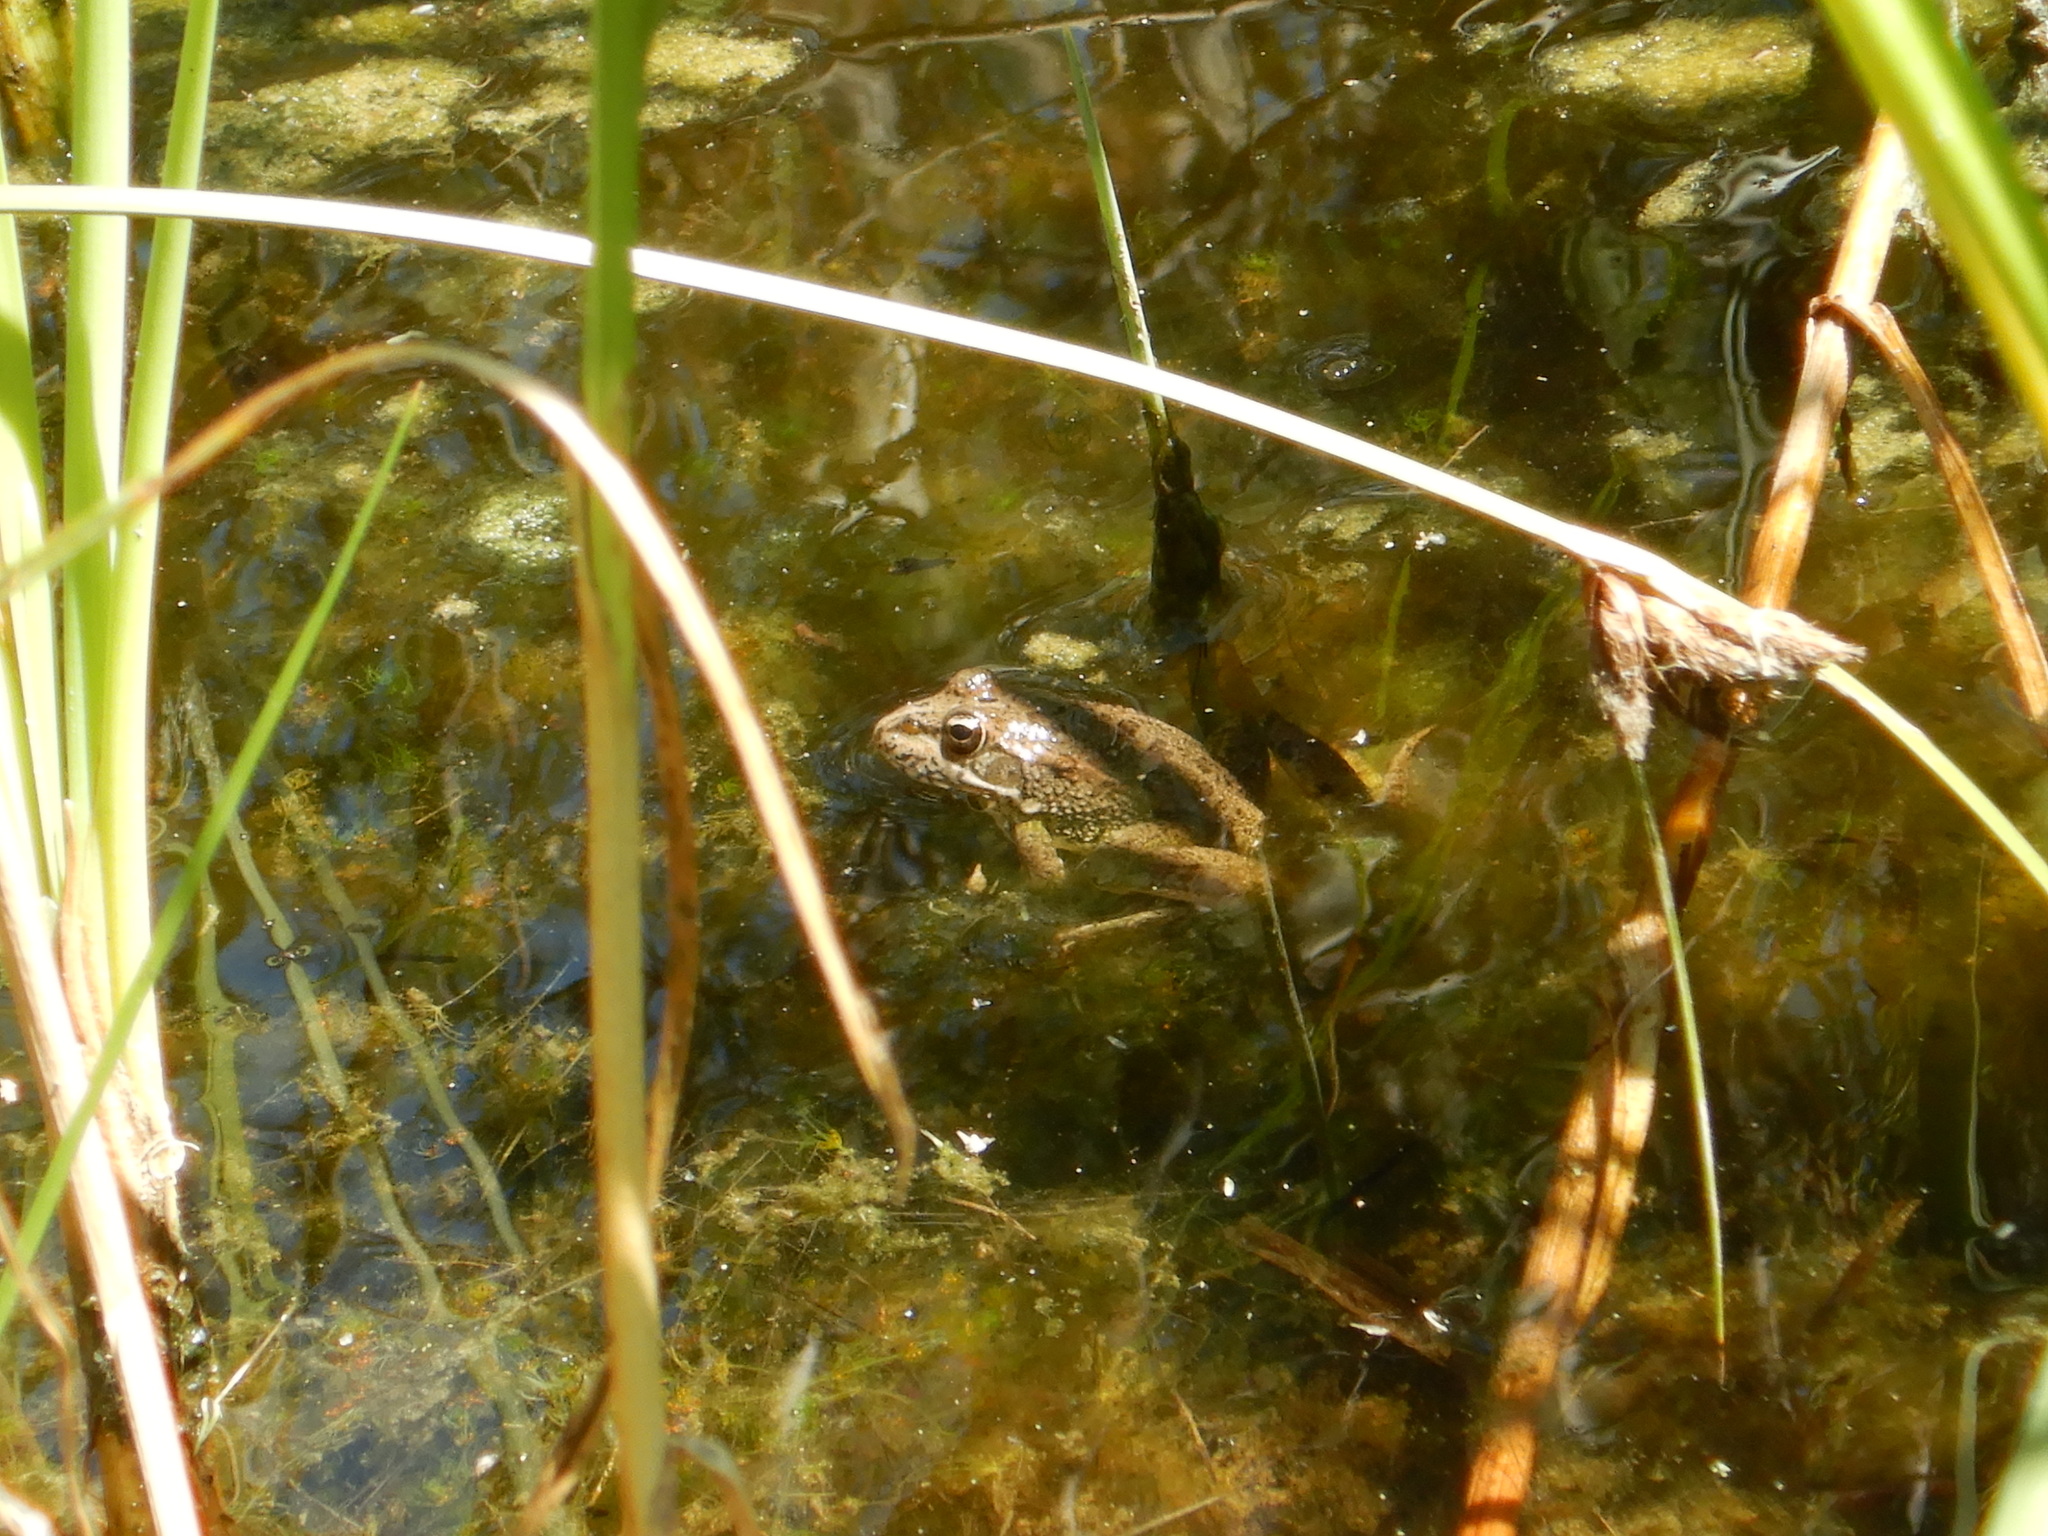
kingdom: Animalia
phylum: Chordata
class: Amphibia
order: Anura
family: Ranidae
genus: Pelophylax
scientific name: Pelophylax perezi
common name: Perez's frog
